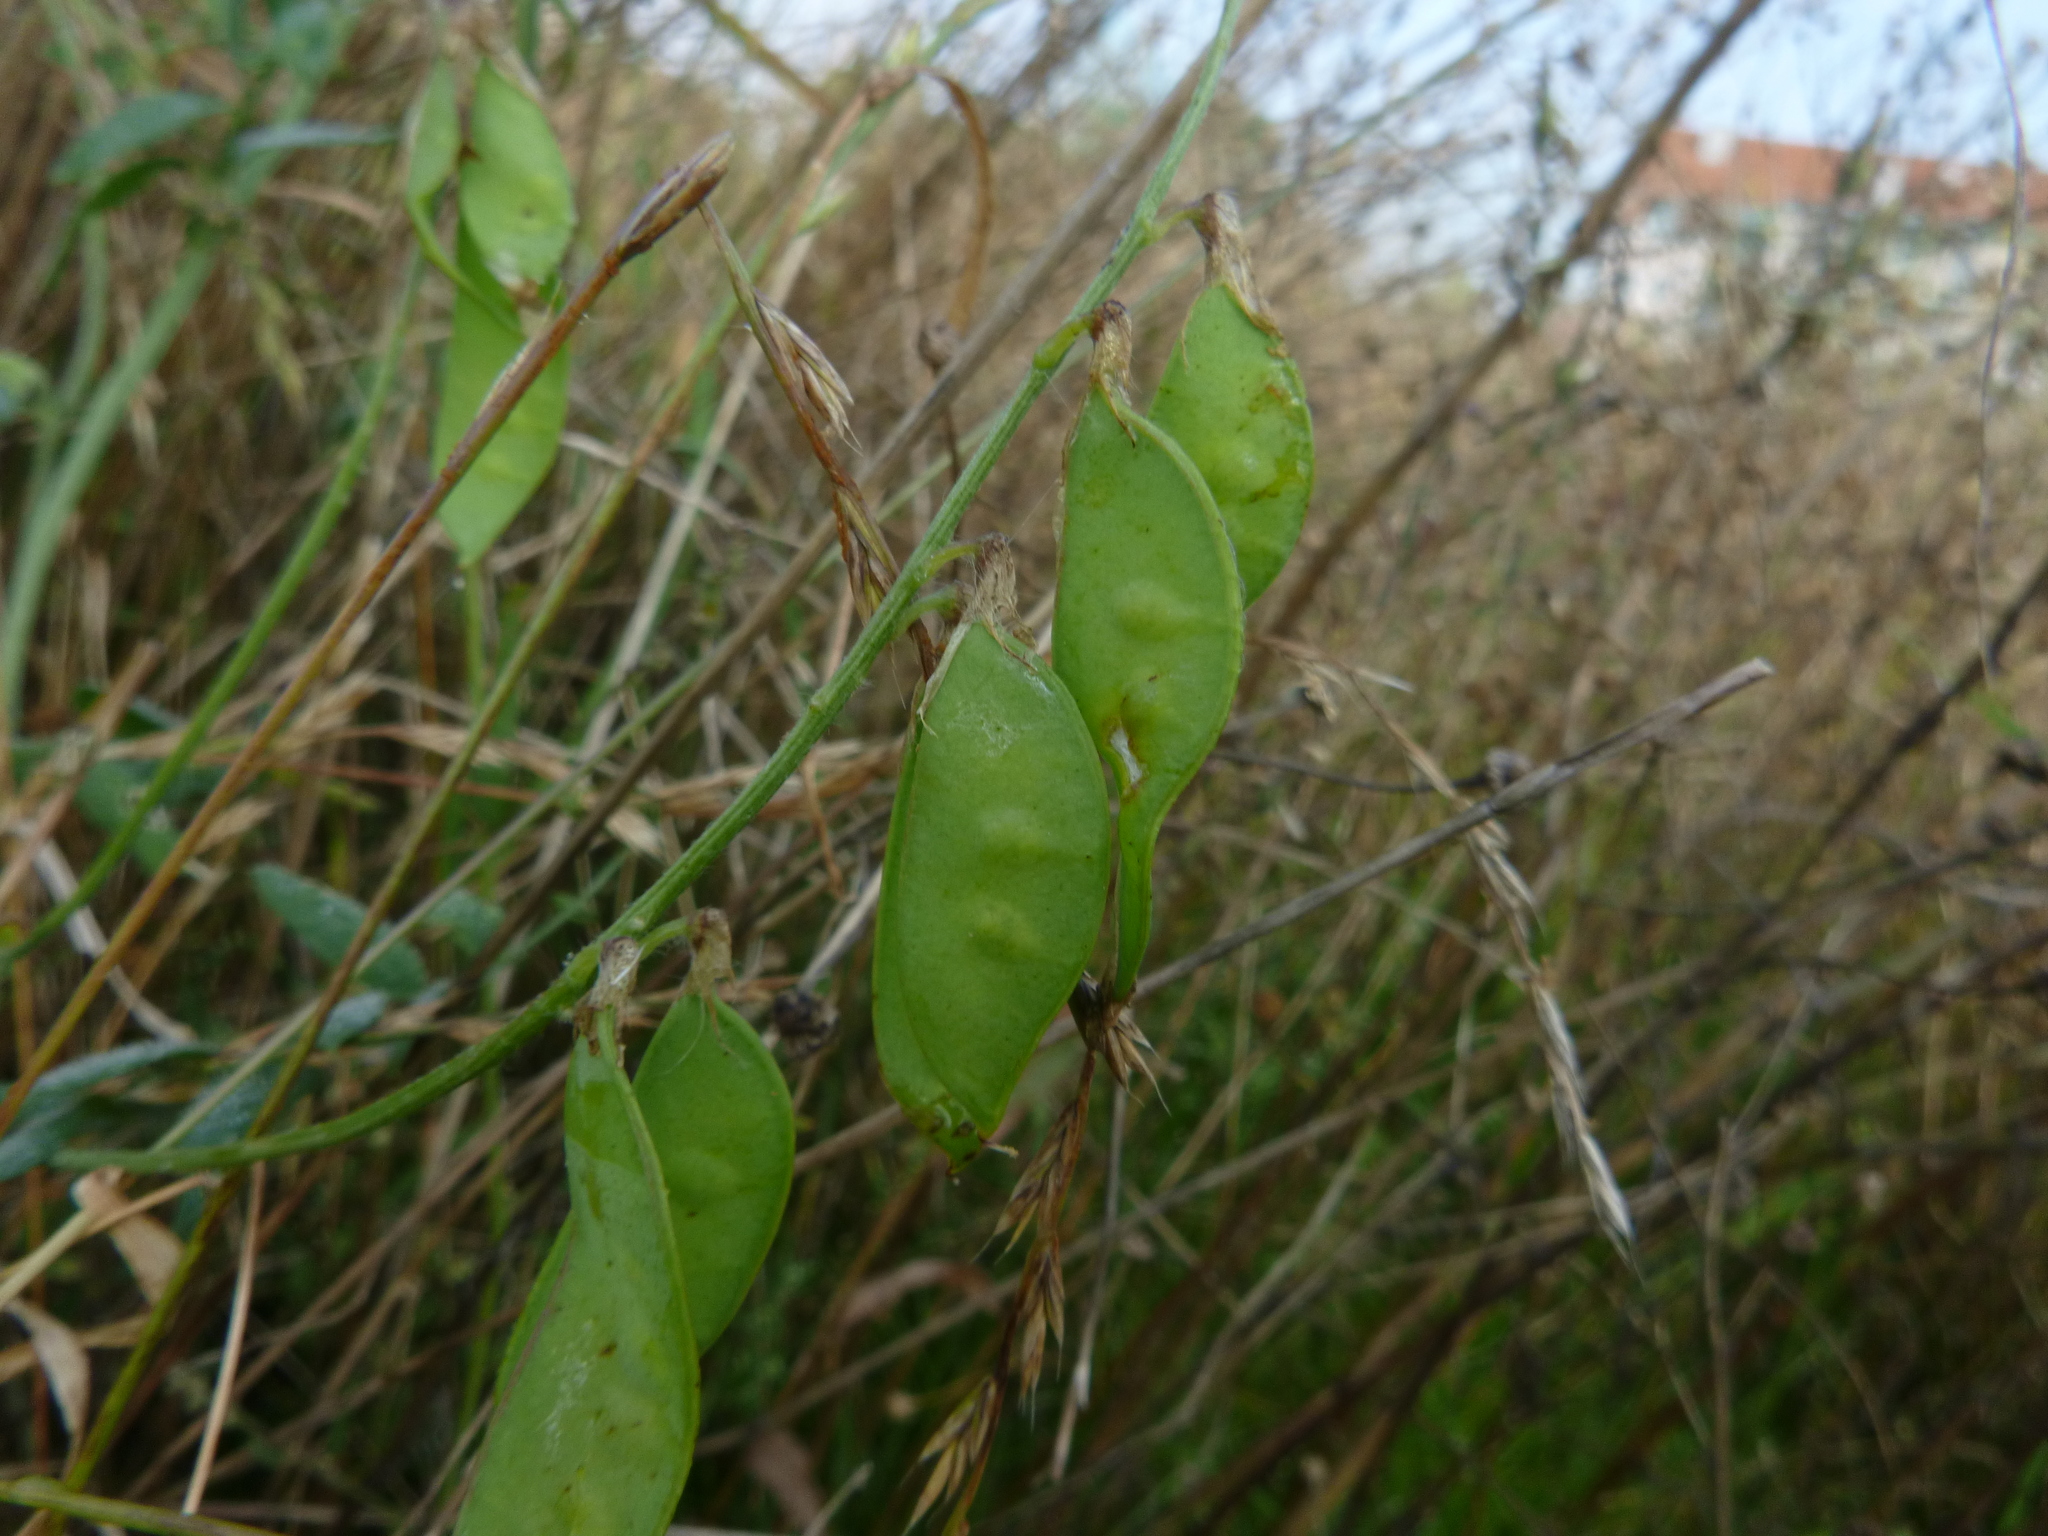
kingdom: Plantae
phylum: Tracheophyta
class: Magnoliopsida
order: Fabales
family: Fabaceae
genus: Vicia
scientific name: Vicia villosa
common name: Fodder vetch
